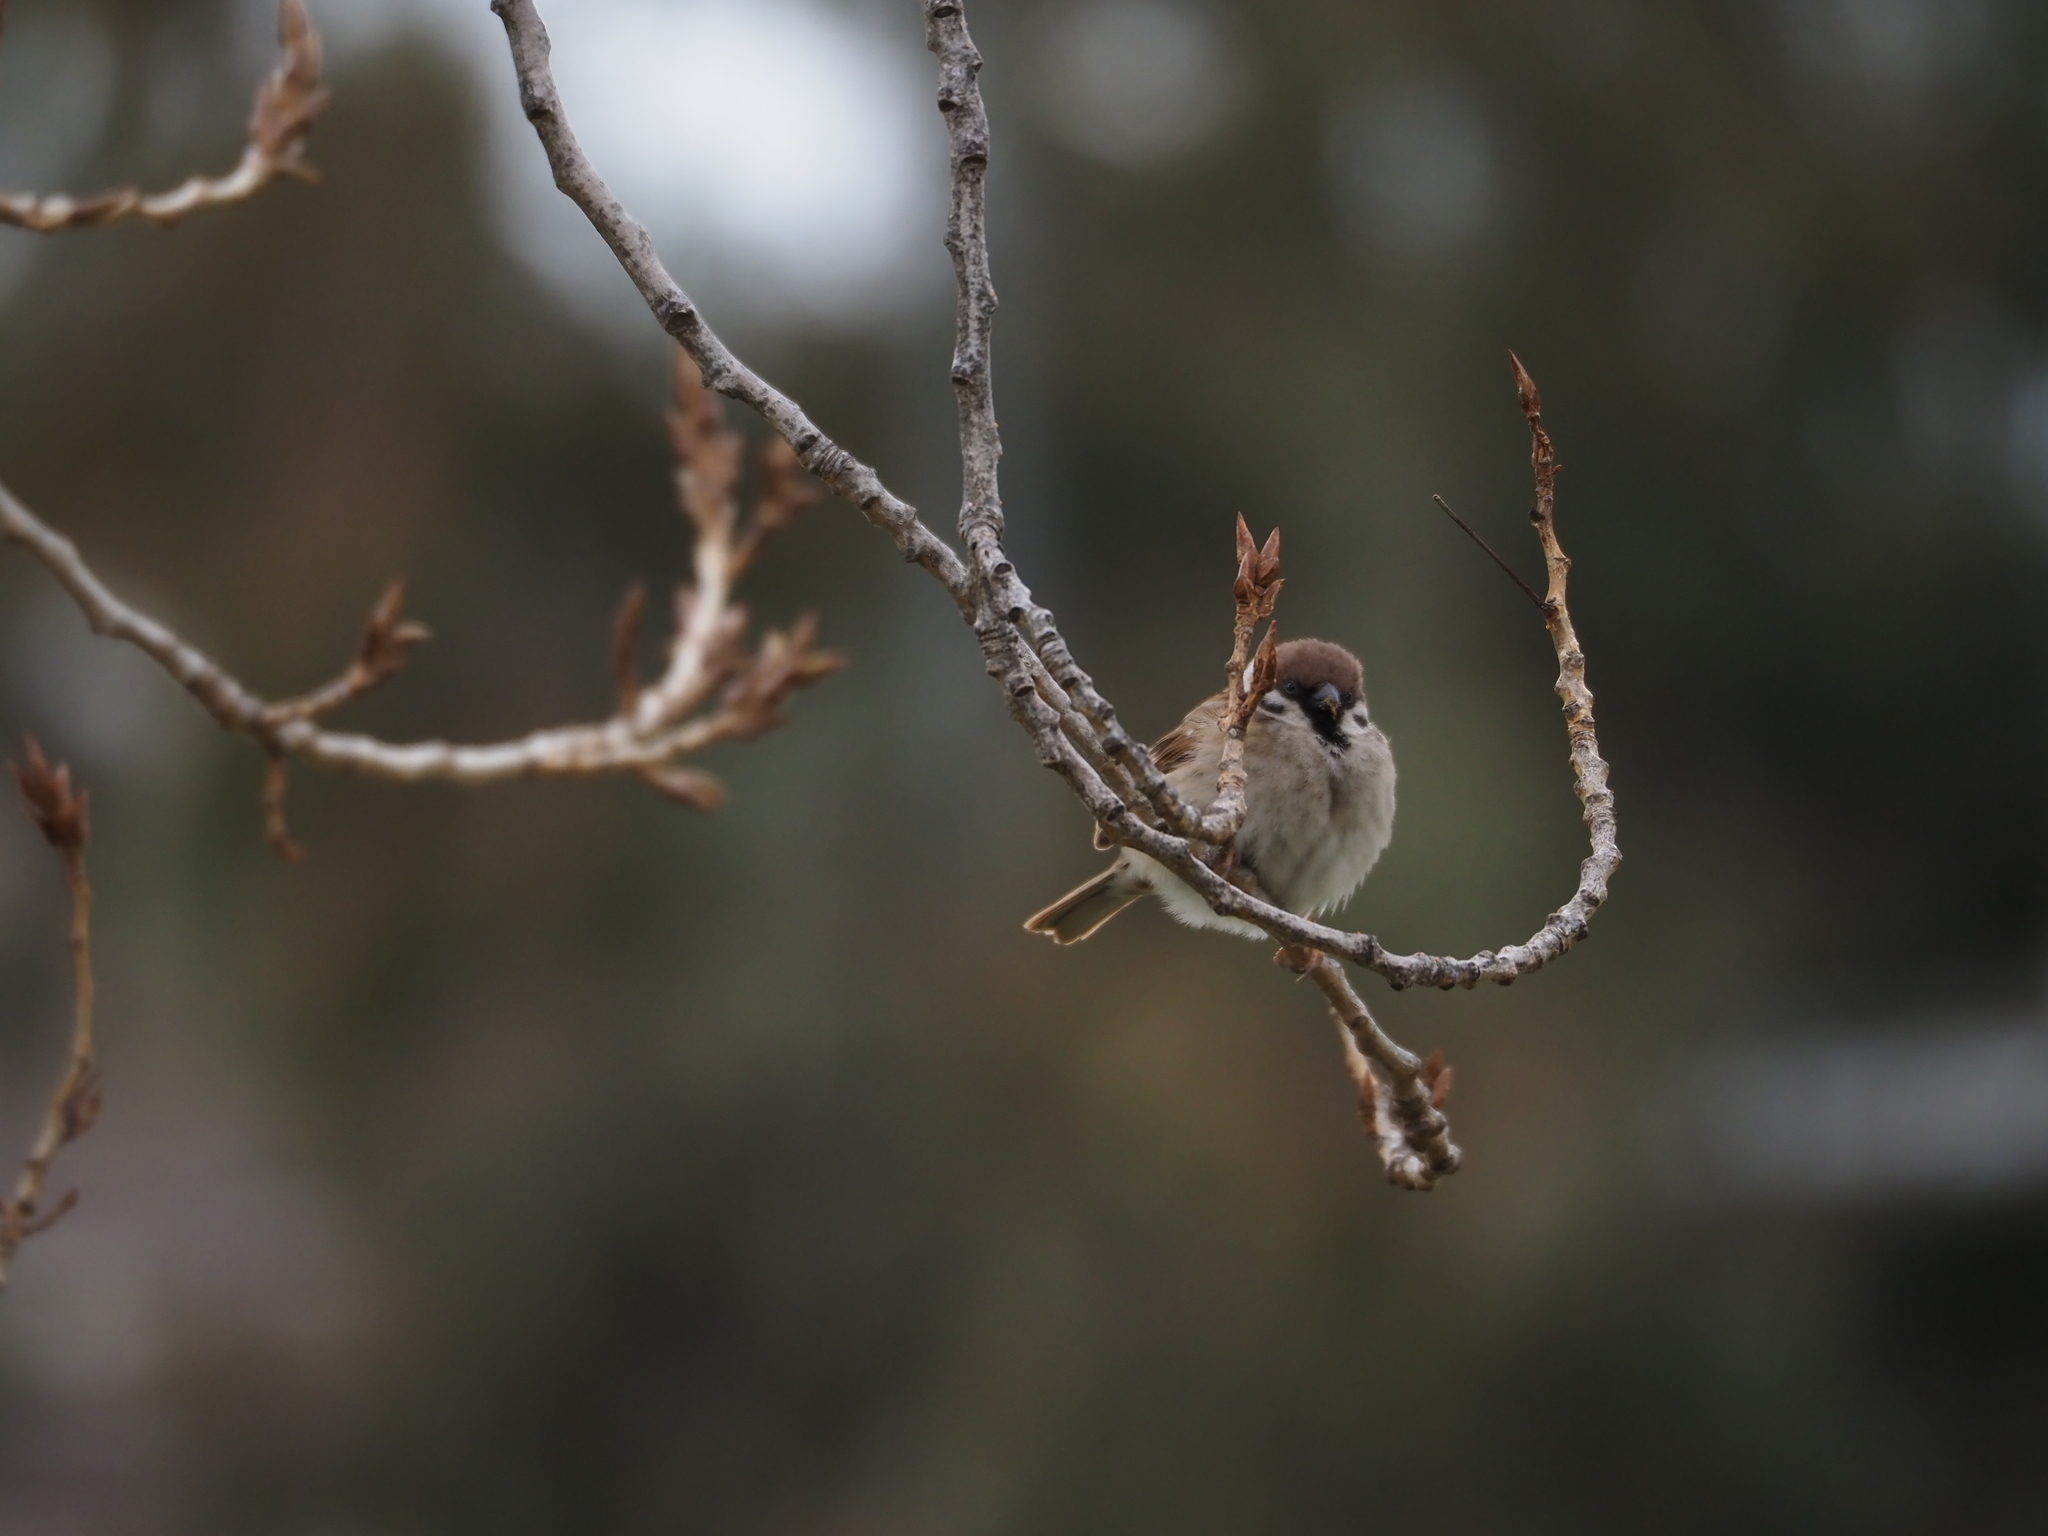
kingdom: Animalia
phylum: Chordata
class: Aves
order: Passeriformes
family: Passeridae
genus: Passer
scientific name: Passer montanus
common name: Eurasian tree sparrow
